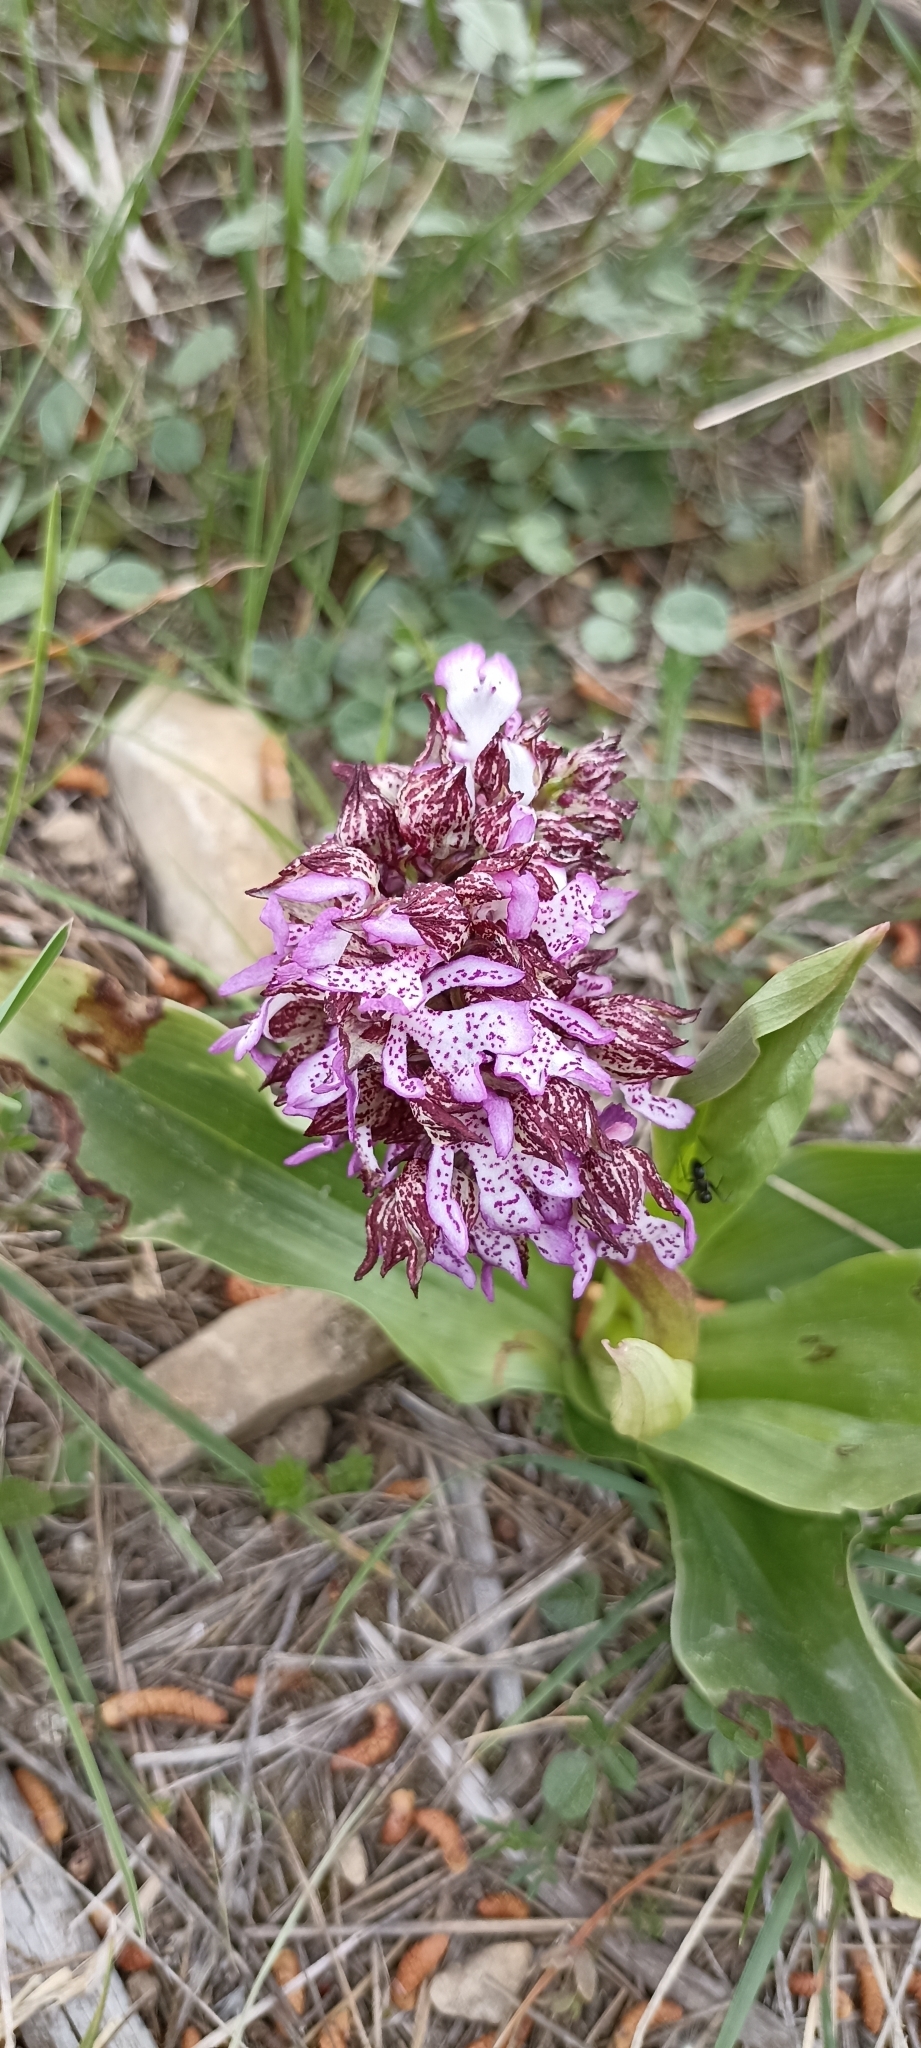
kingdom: Plantae
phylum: Tracheophyta
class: Liliopsida
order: Asparagales
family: Orchidaceae
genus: Orchis
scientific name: Orchis purpurea
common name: Lady orchid
